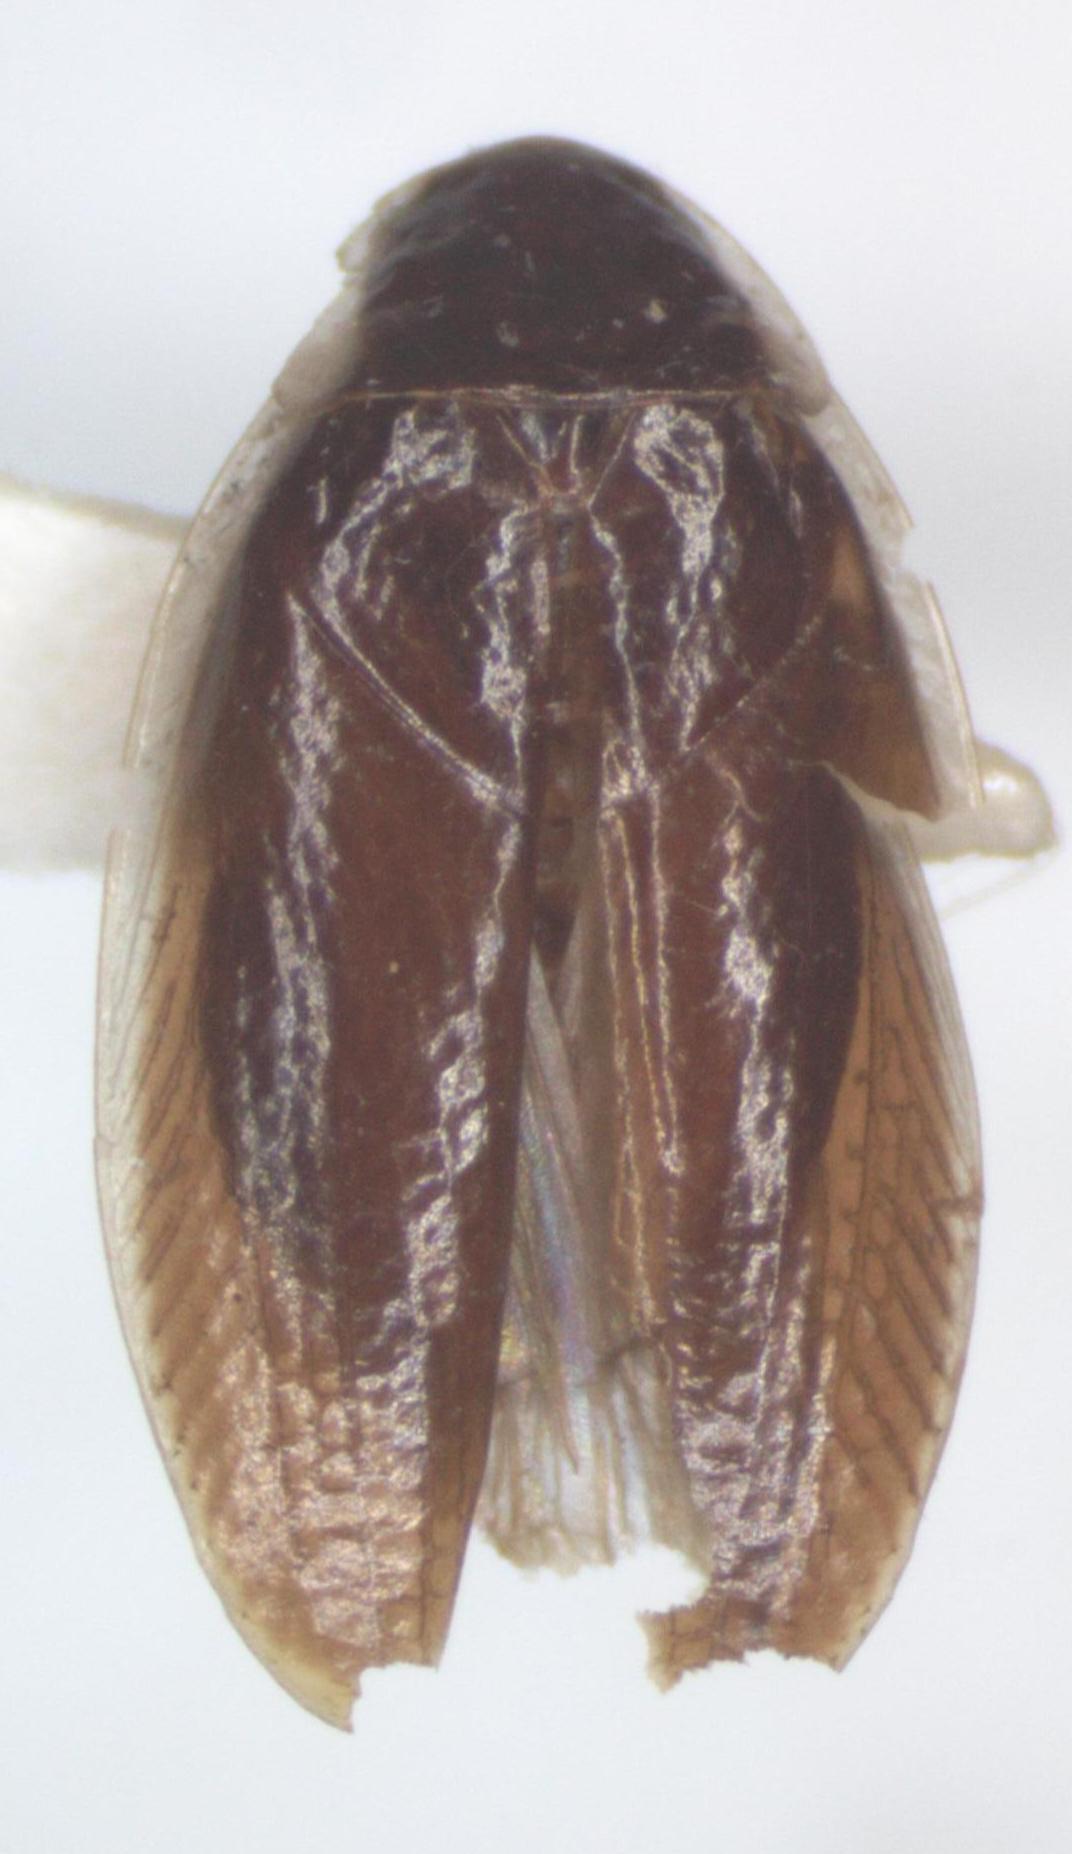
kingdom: Animalia
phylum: Arthropoda
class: Insecta
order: Blattodea
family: Anaplectidae
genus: Anaplecta
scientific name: Anaplecta fallax
